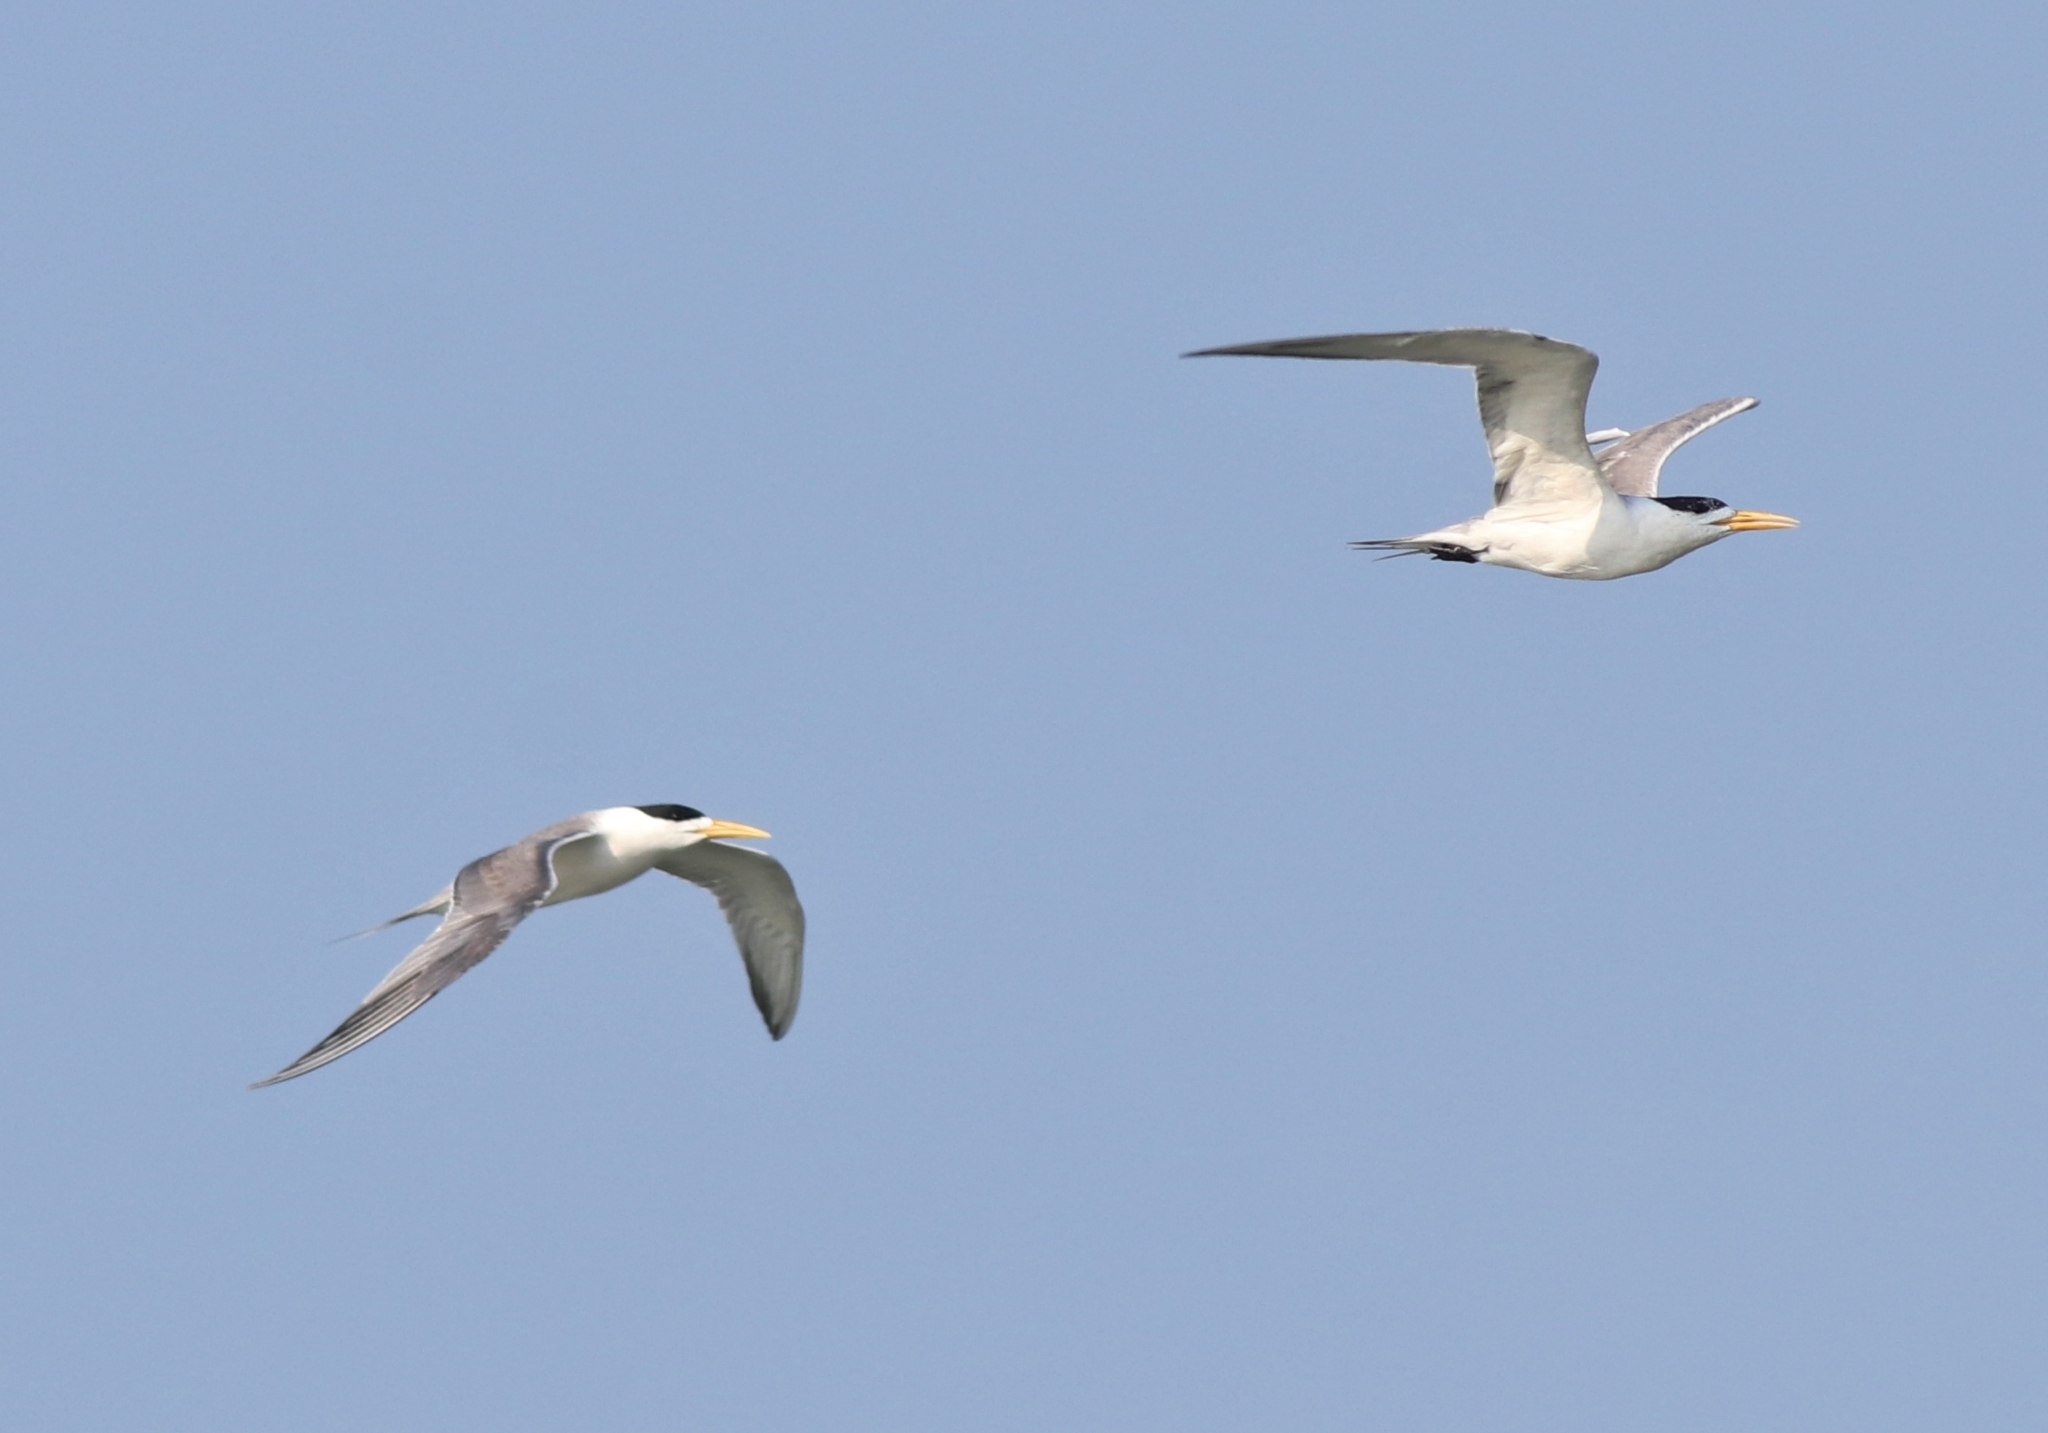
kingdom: Animalia
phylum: Chordata
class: Aves
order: Charadriiformes
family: Laridae
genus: Thalasseus
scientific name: Thalasseus bergii
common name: Greater crested tern
